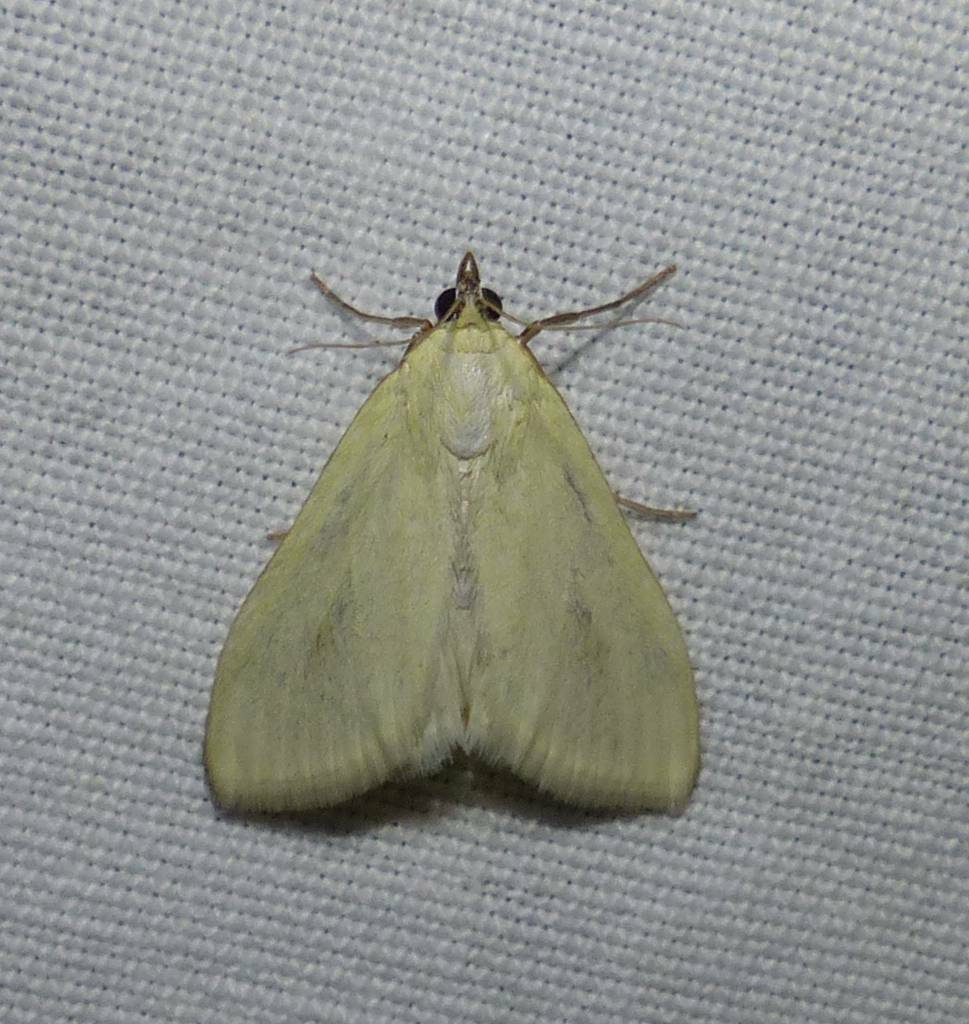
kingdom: Animalia
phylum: Arthropoda
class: Insecta
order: Lepidoptera
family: Crambidae
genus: Sitochroa
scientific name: Sitochroa palealis
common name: Greenish-yellow sitochroa moth
